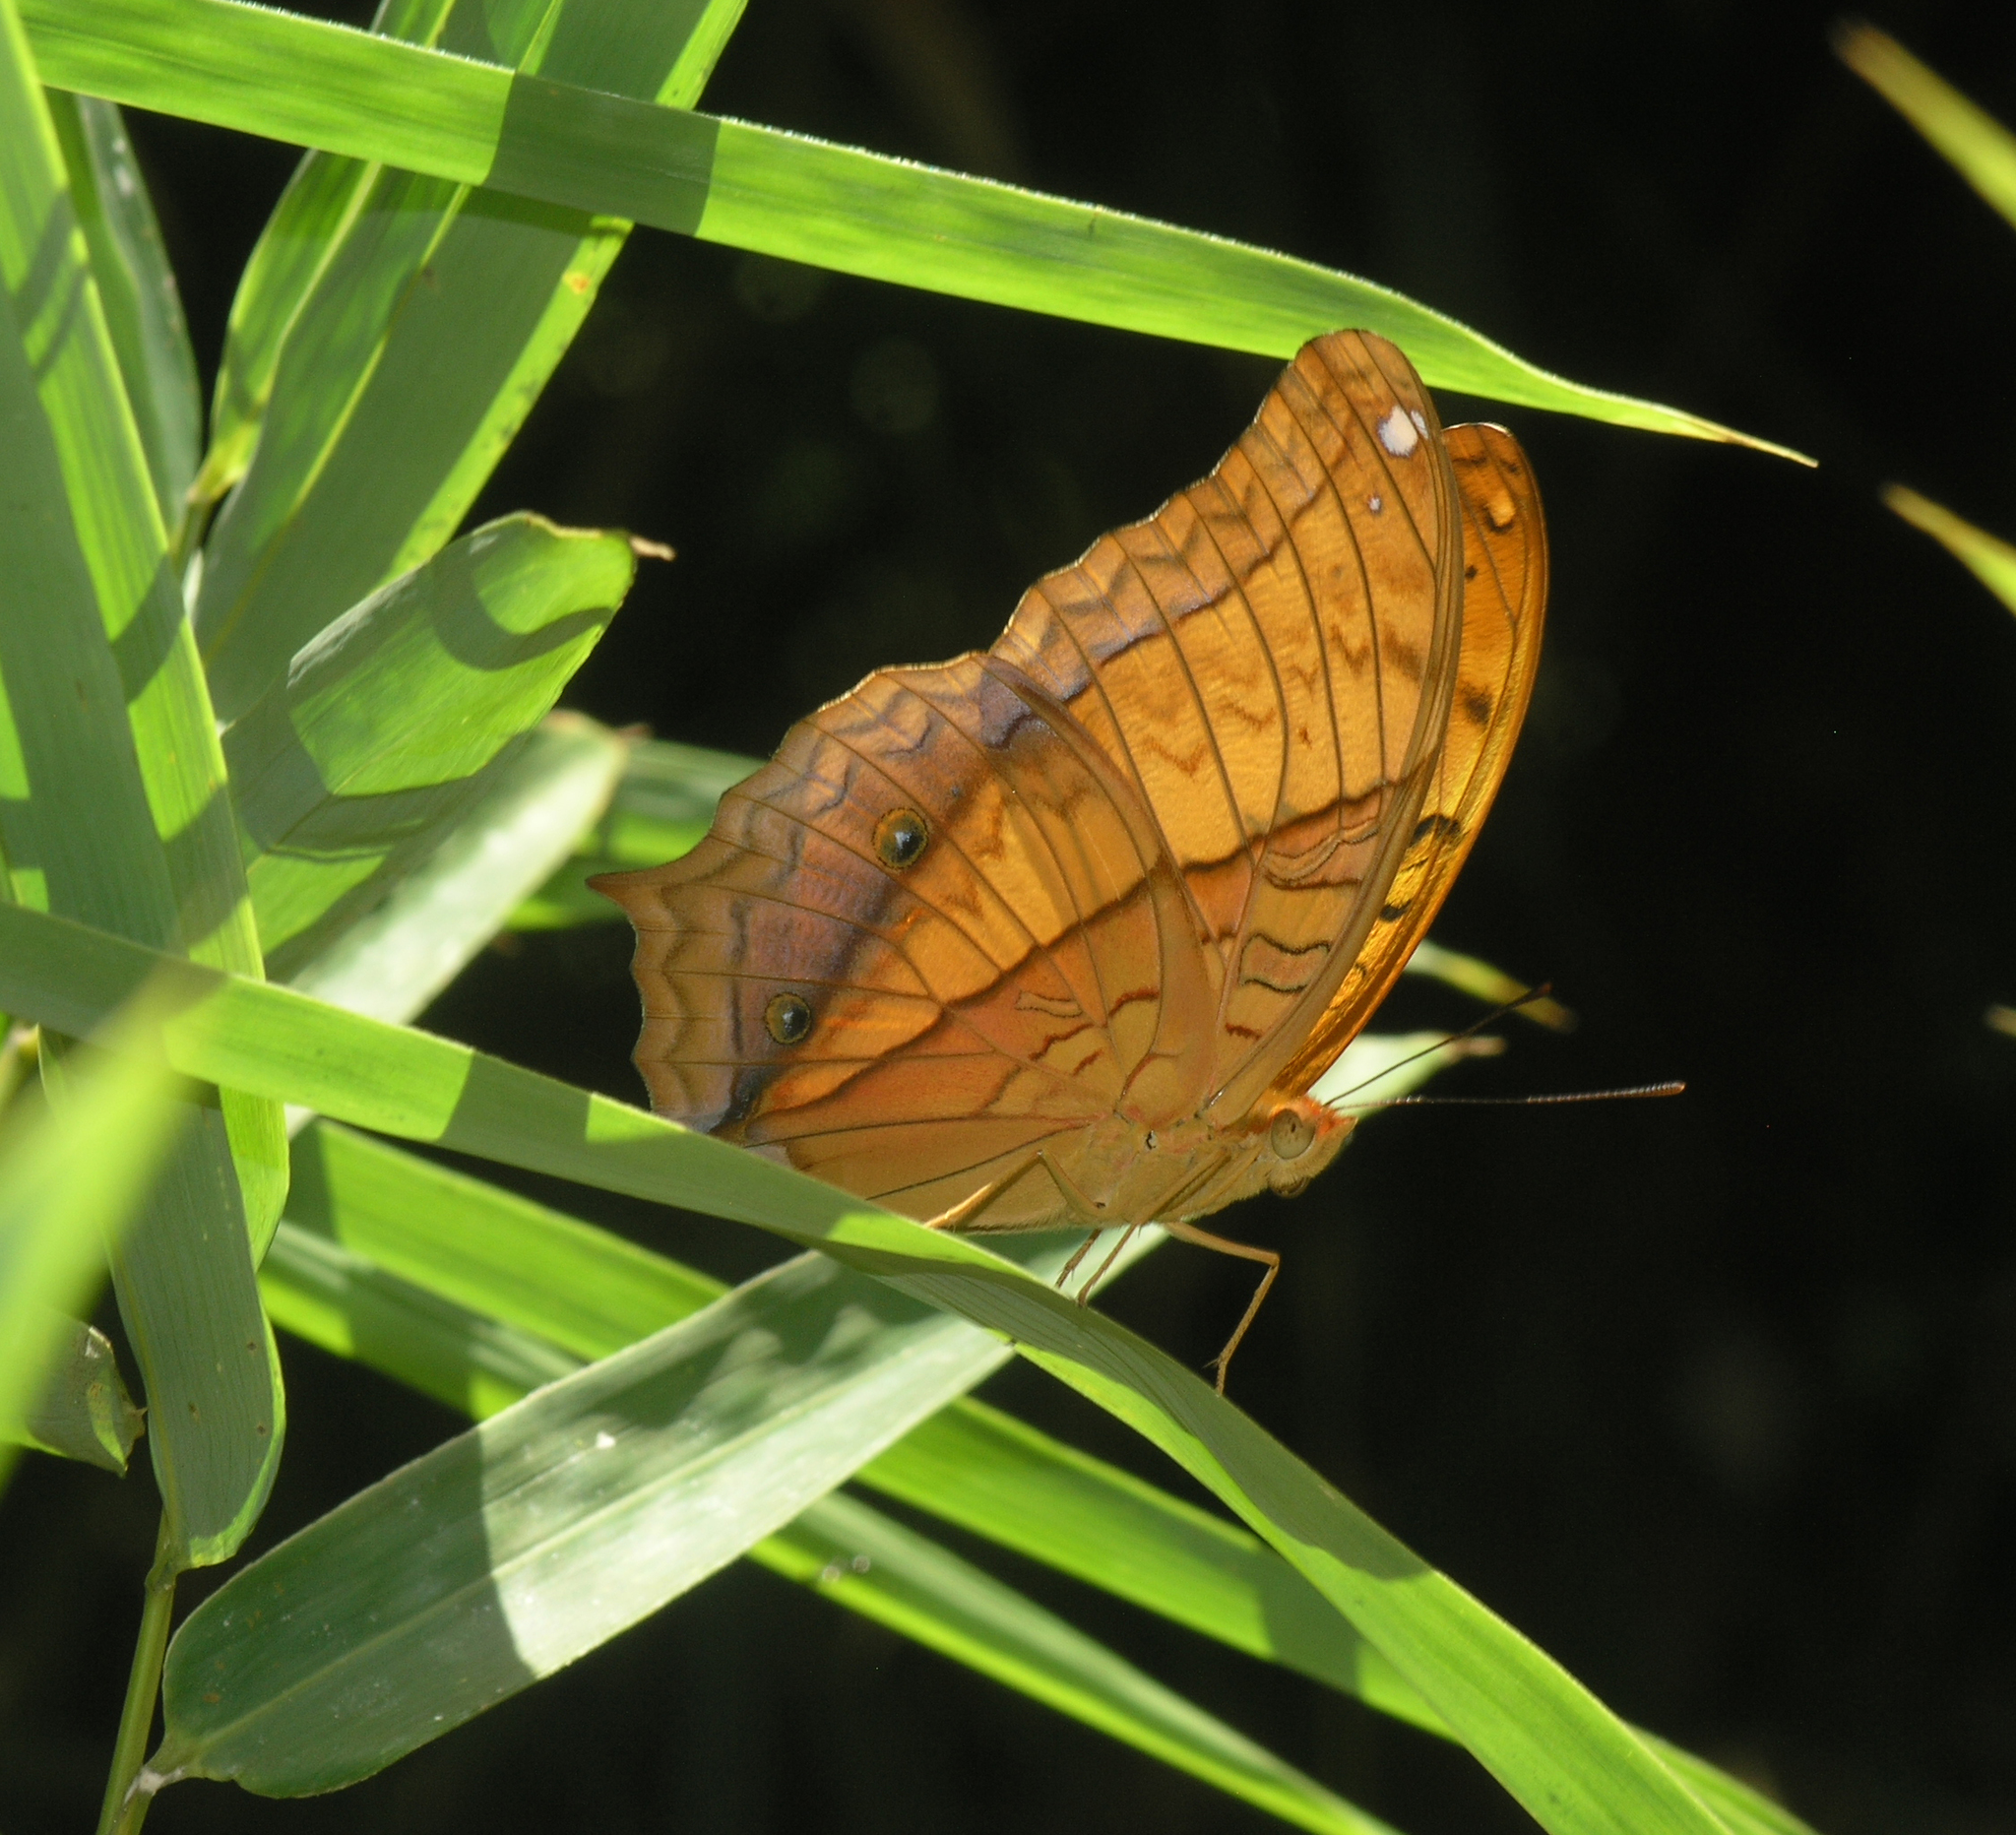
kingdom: Animalia
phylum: Arthropoda
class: Insecta
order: Lepidoptera
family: Nymphalidae
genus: Vindula
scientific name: Vindula erota
